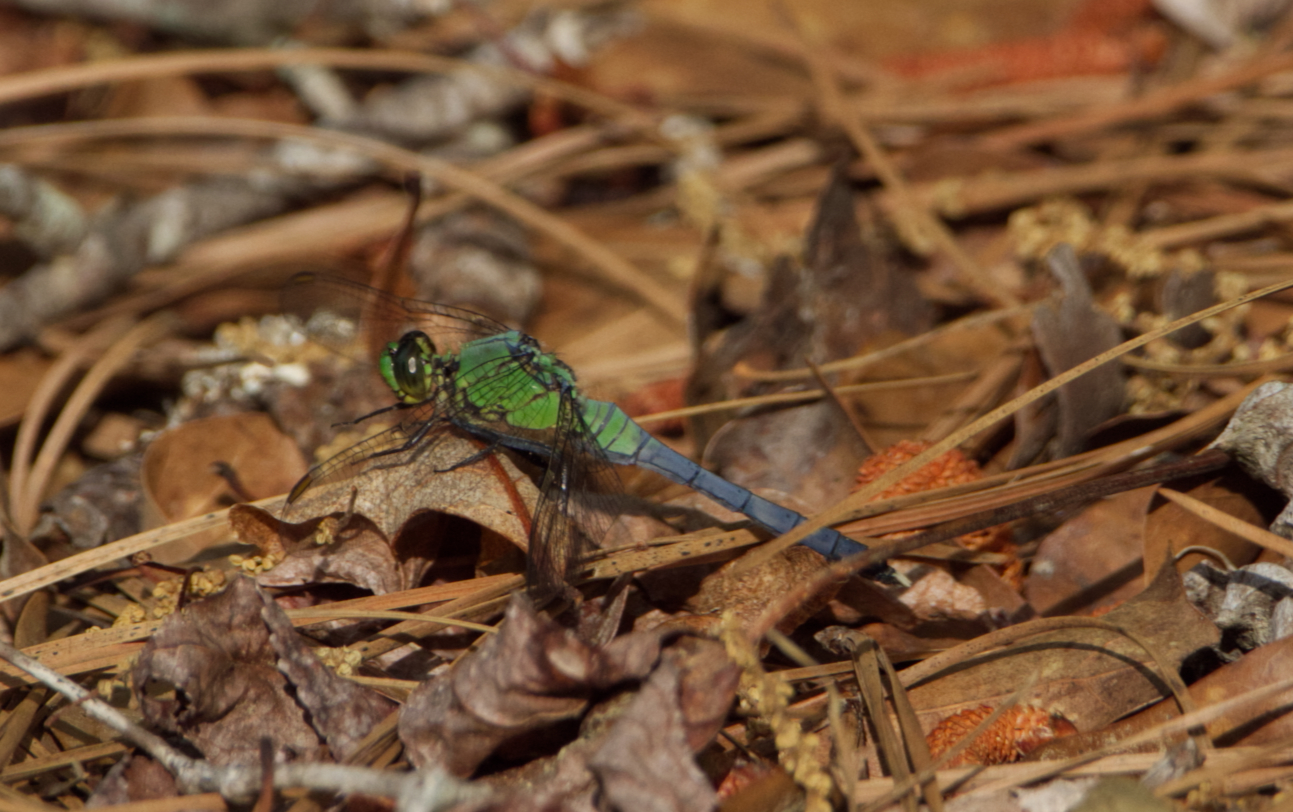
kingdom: Animalia
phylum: Arthropoda
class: Insecta
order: Odonata
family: Libellulidae
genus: Erythemis
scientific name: Erythemis simplicicollis
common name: Eastern pondhawk
